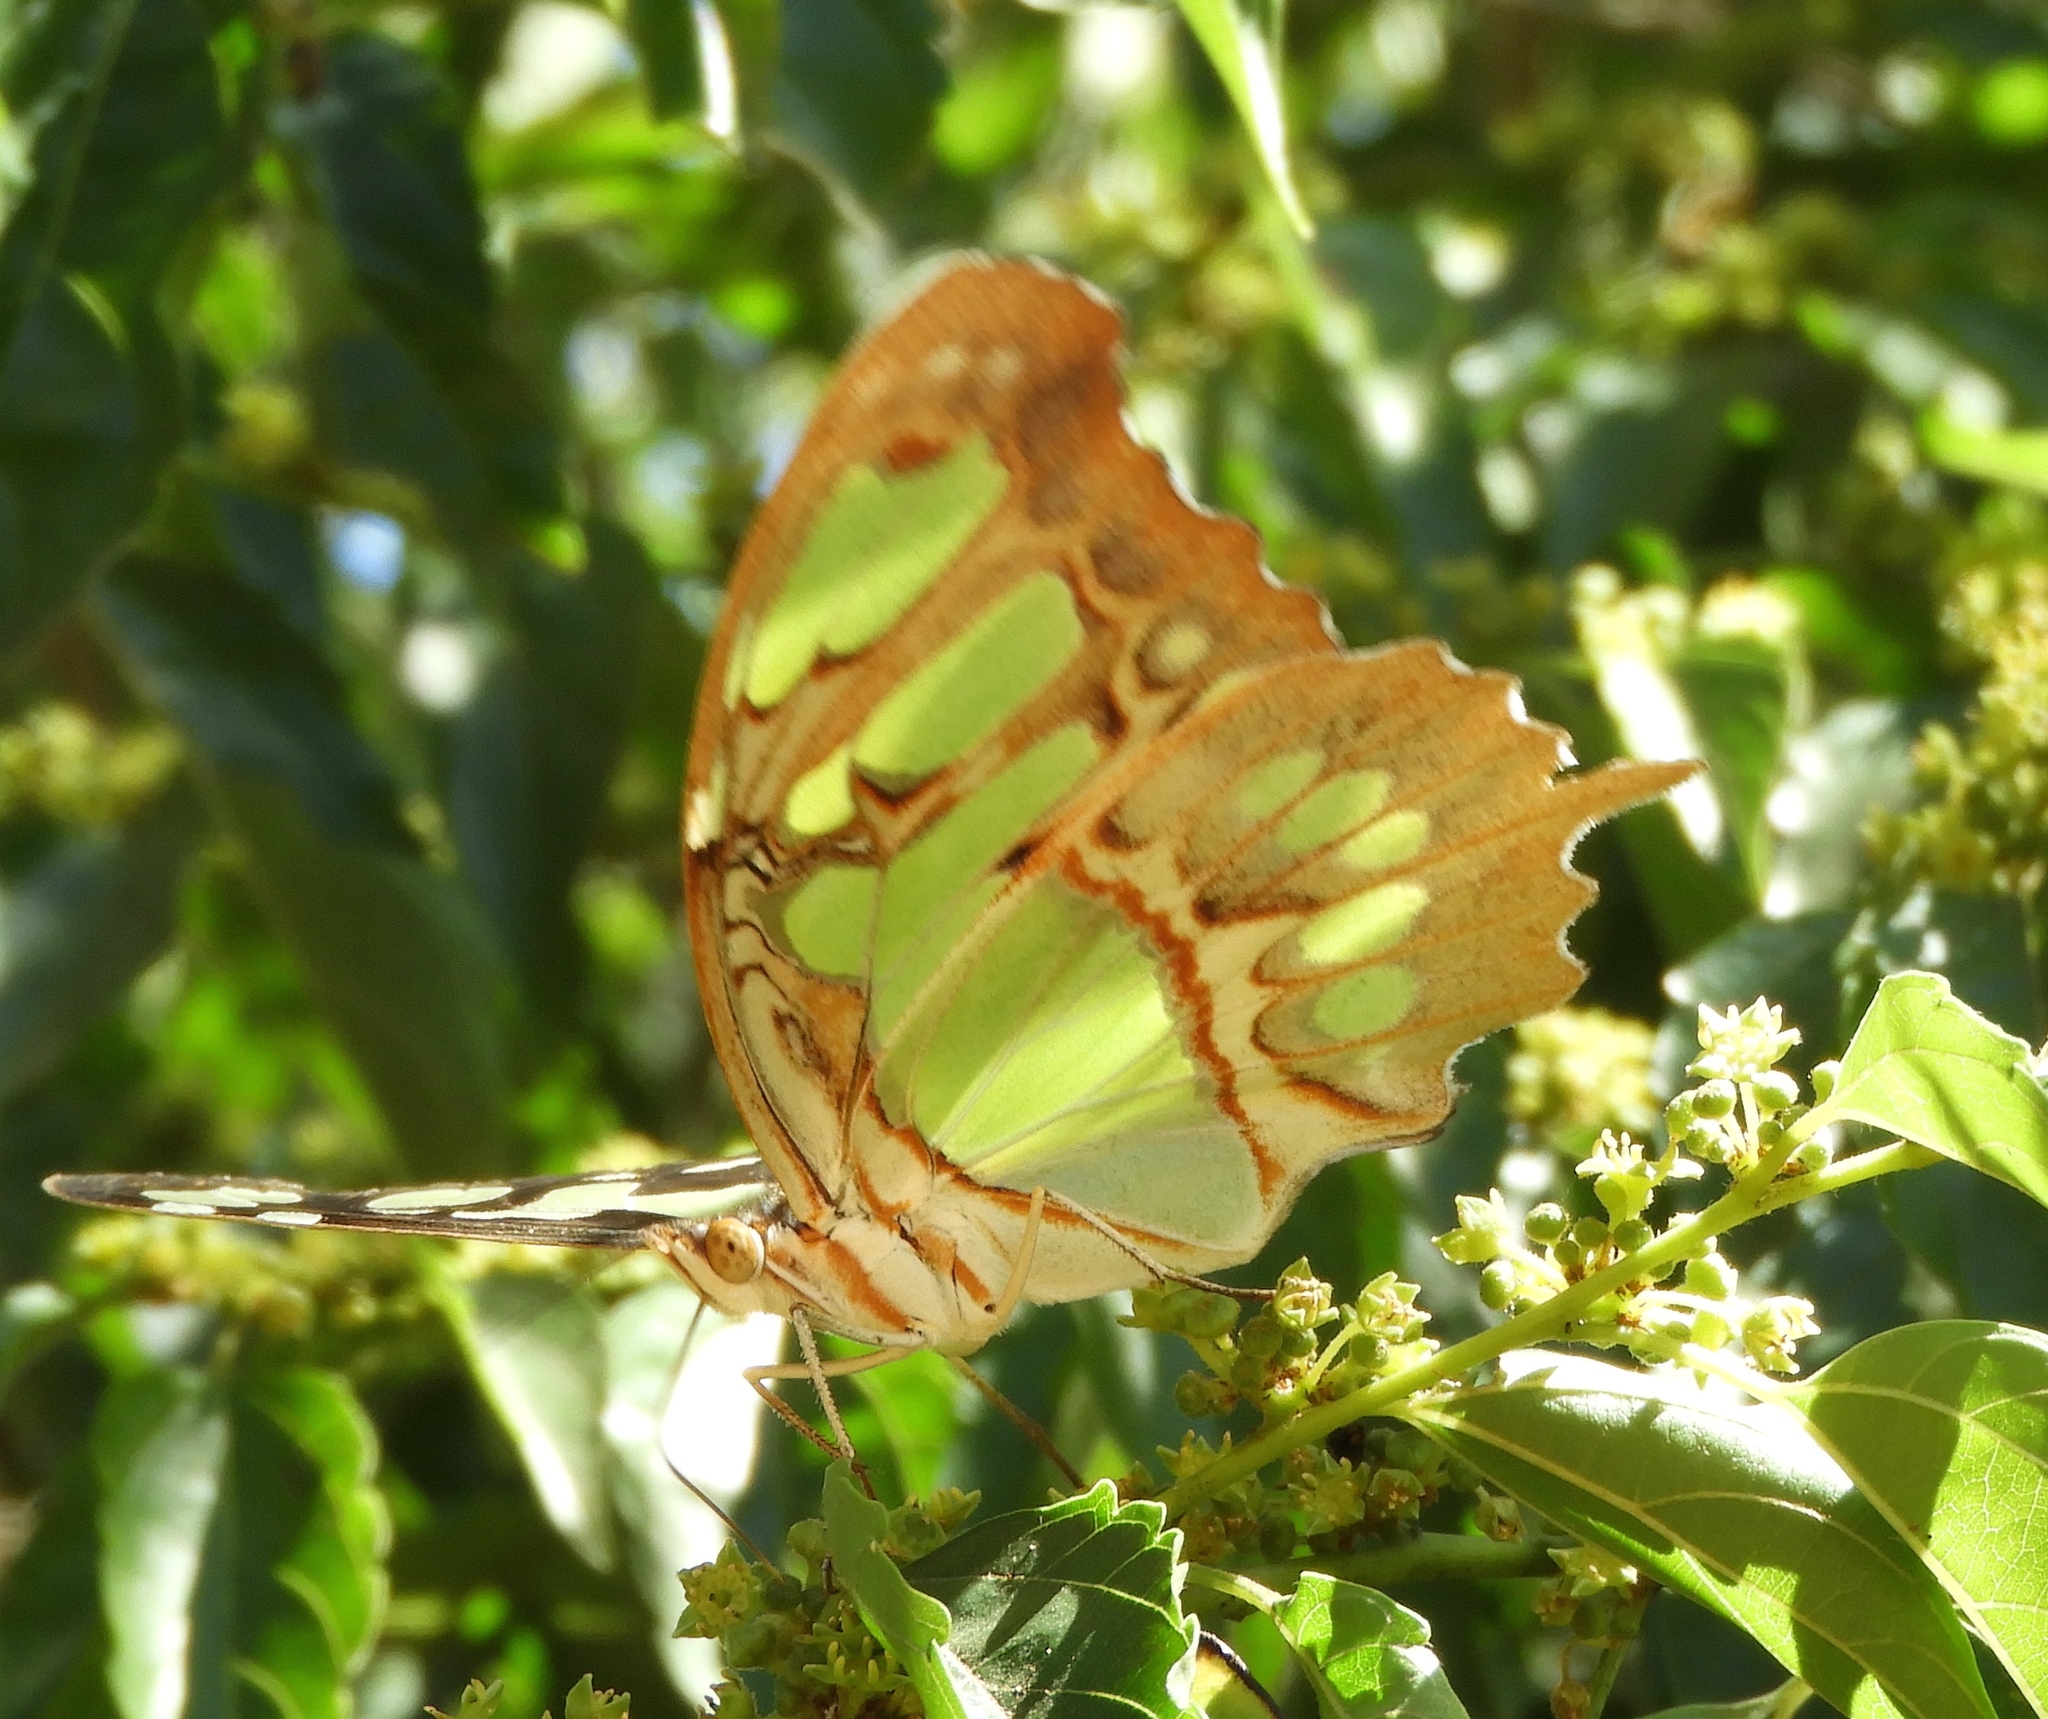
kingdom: Animalia
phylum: Arthropoda
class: Insecta
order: Lepidoptera
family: Nymphalidae
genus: Siproeta
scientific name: Siproeta stelenes
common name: Malachite
